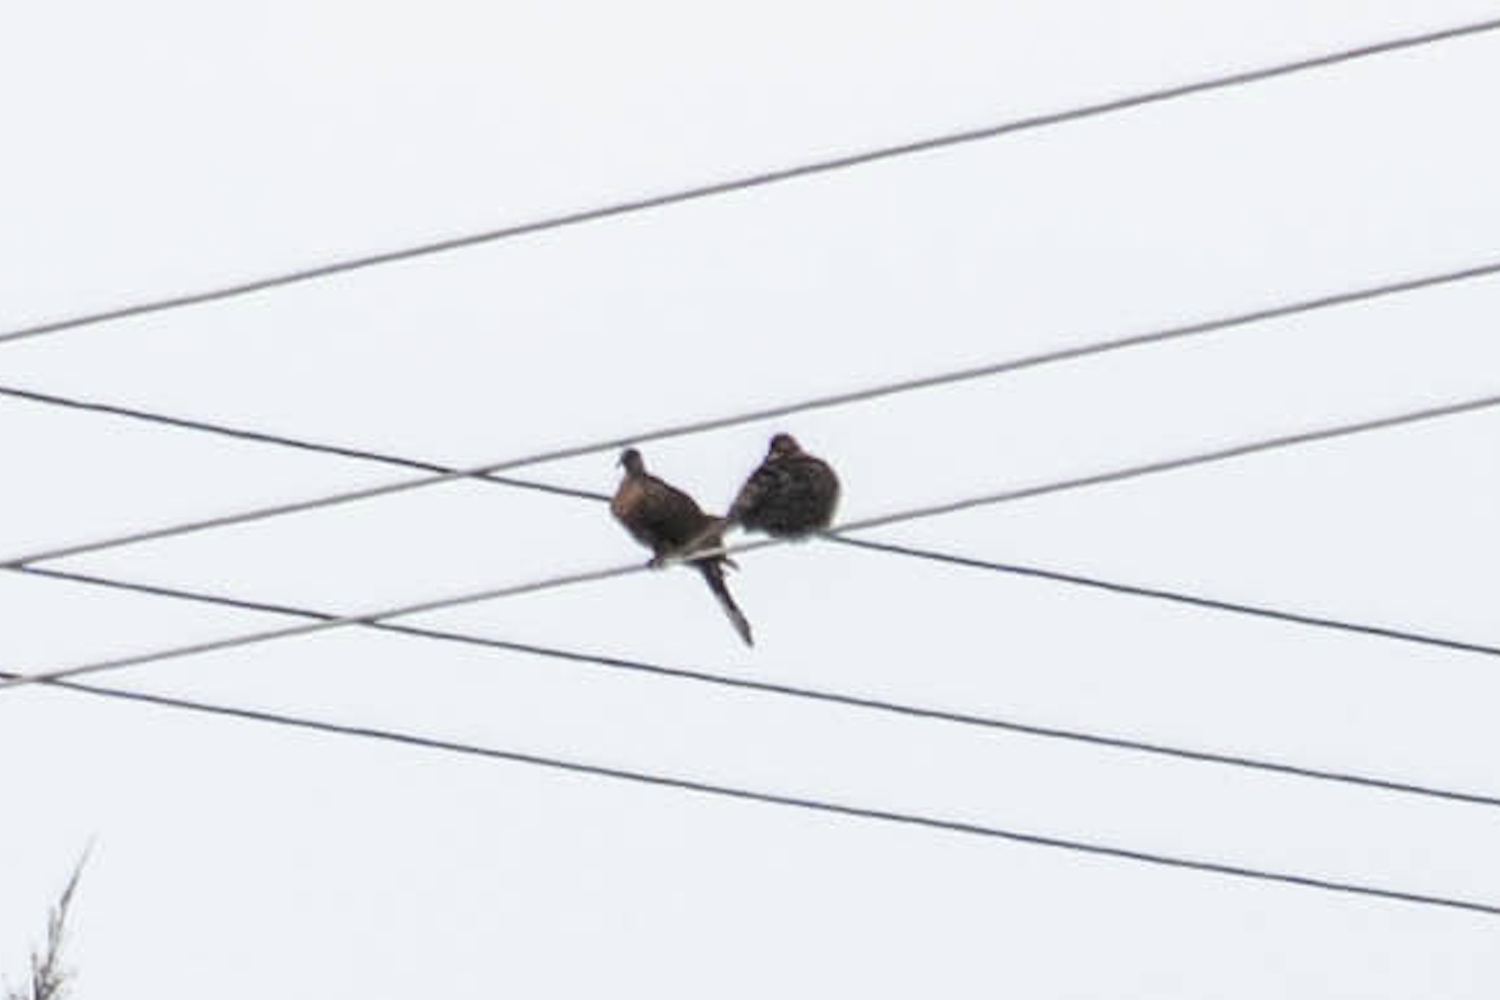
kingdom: Animalia
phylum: Chordata
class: Aves
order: Columbiformes
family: Columbidae
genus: Spilopelia
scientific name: Spilopelia chinensis
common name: Spotted dove
